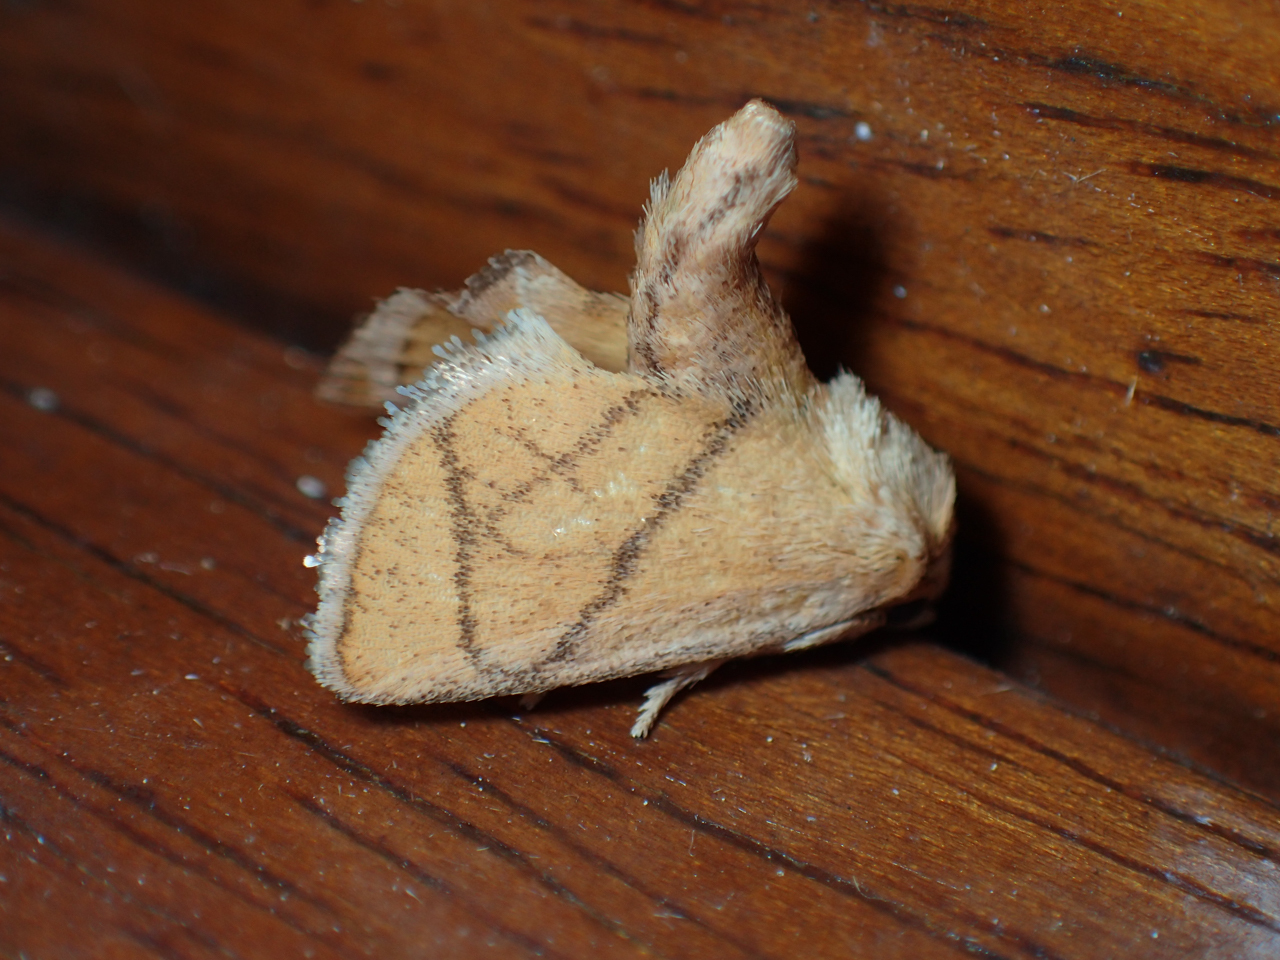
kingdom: Animalia
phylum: Arthropoda
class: Insecta
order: Lepidoptera
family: Limacodidae
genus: Apoda
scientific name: Apoda y-inversa
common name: Yellow-collared slug moth
